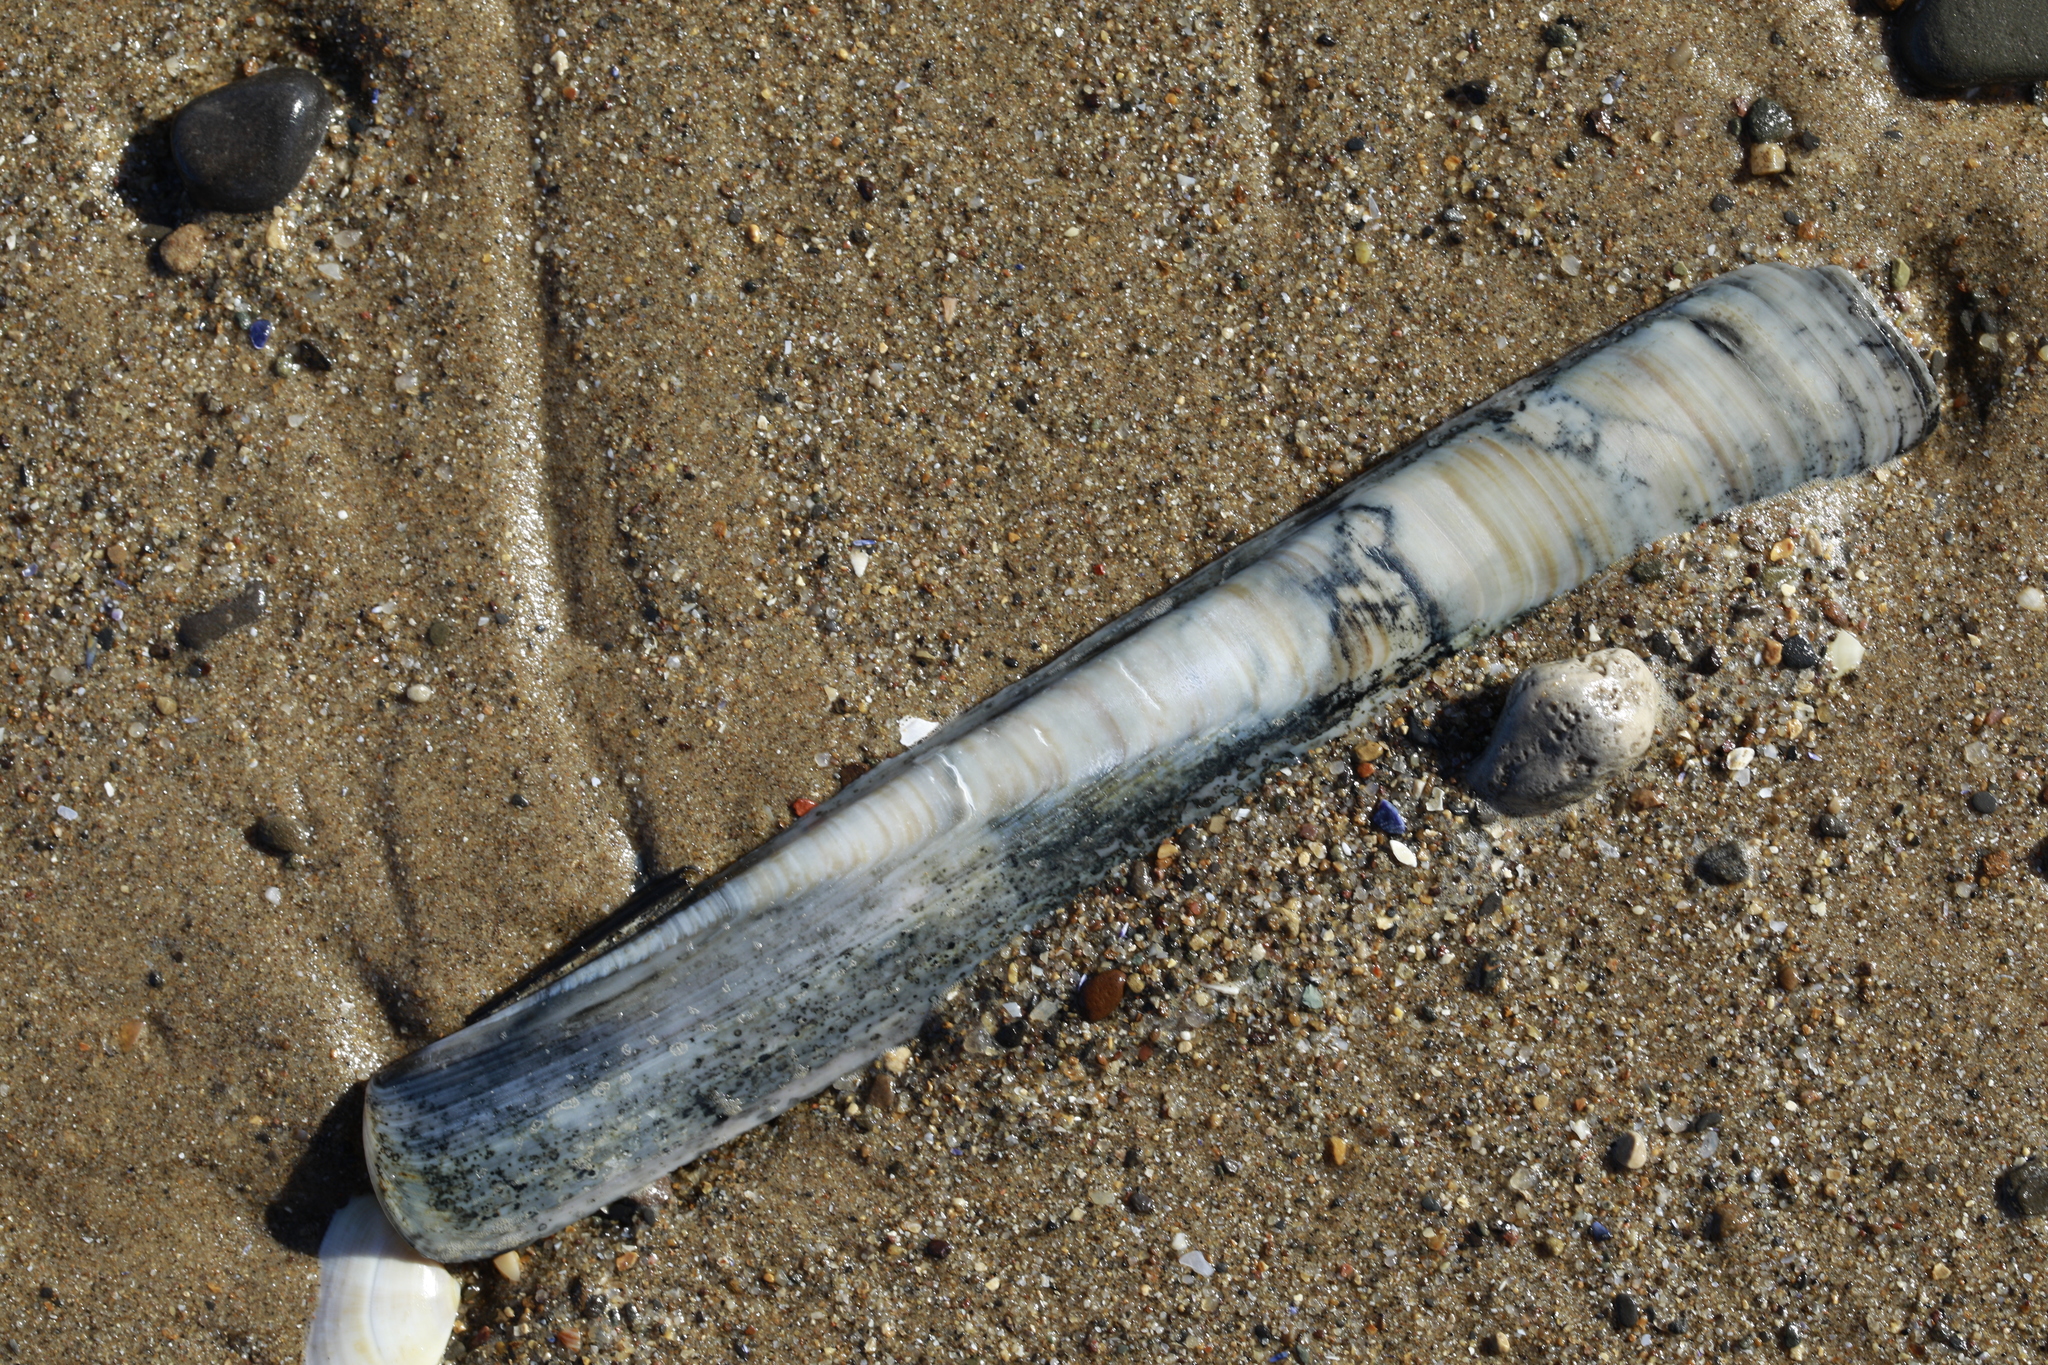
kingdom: Animalia
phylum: Mollusca
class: Bivalvia
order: Adapedonta
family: Pharidae
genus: Ensis
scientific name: Ensis siliqua
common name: Pod razor shell
